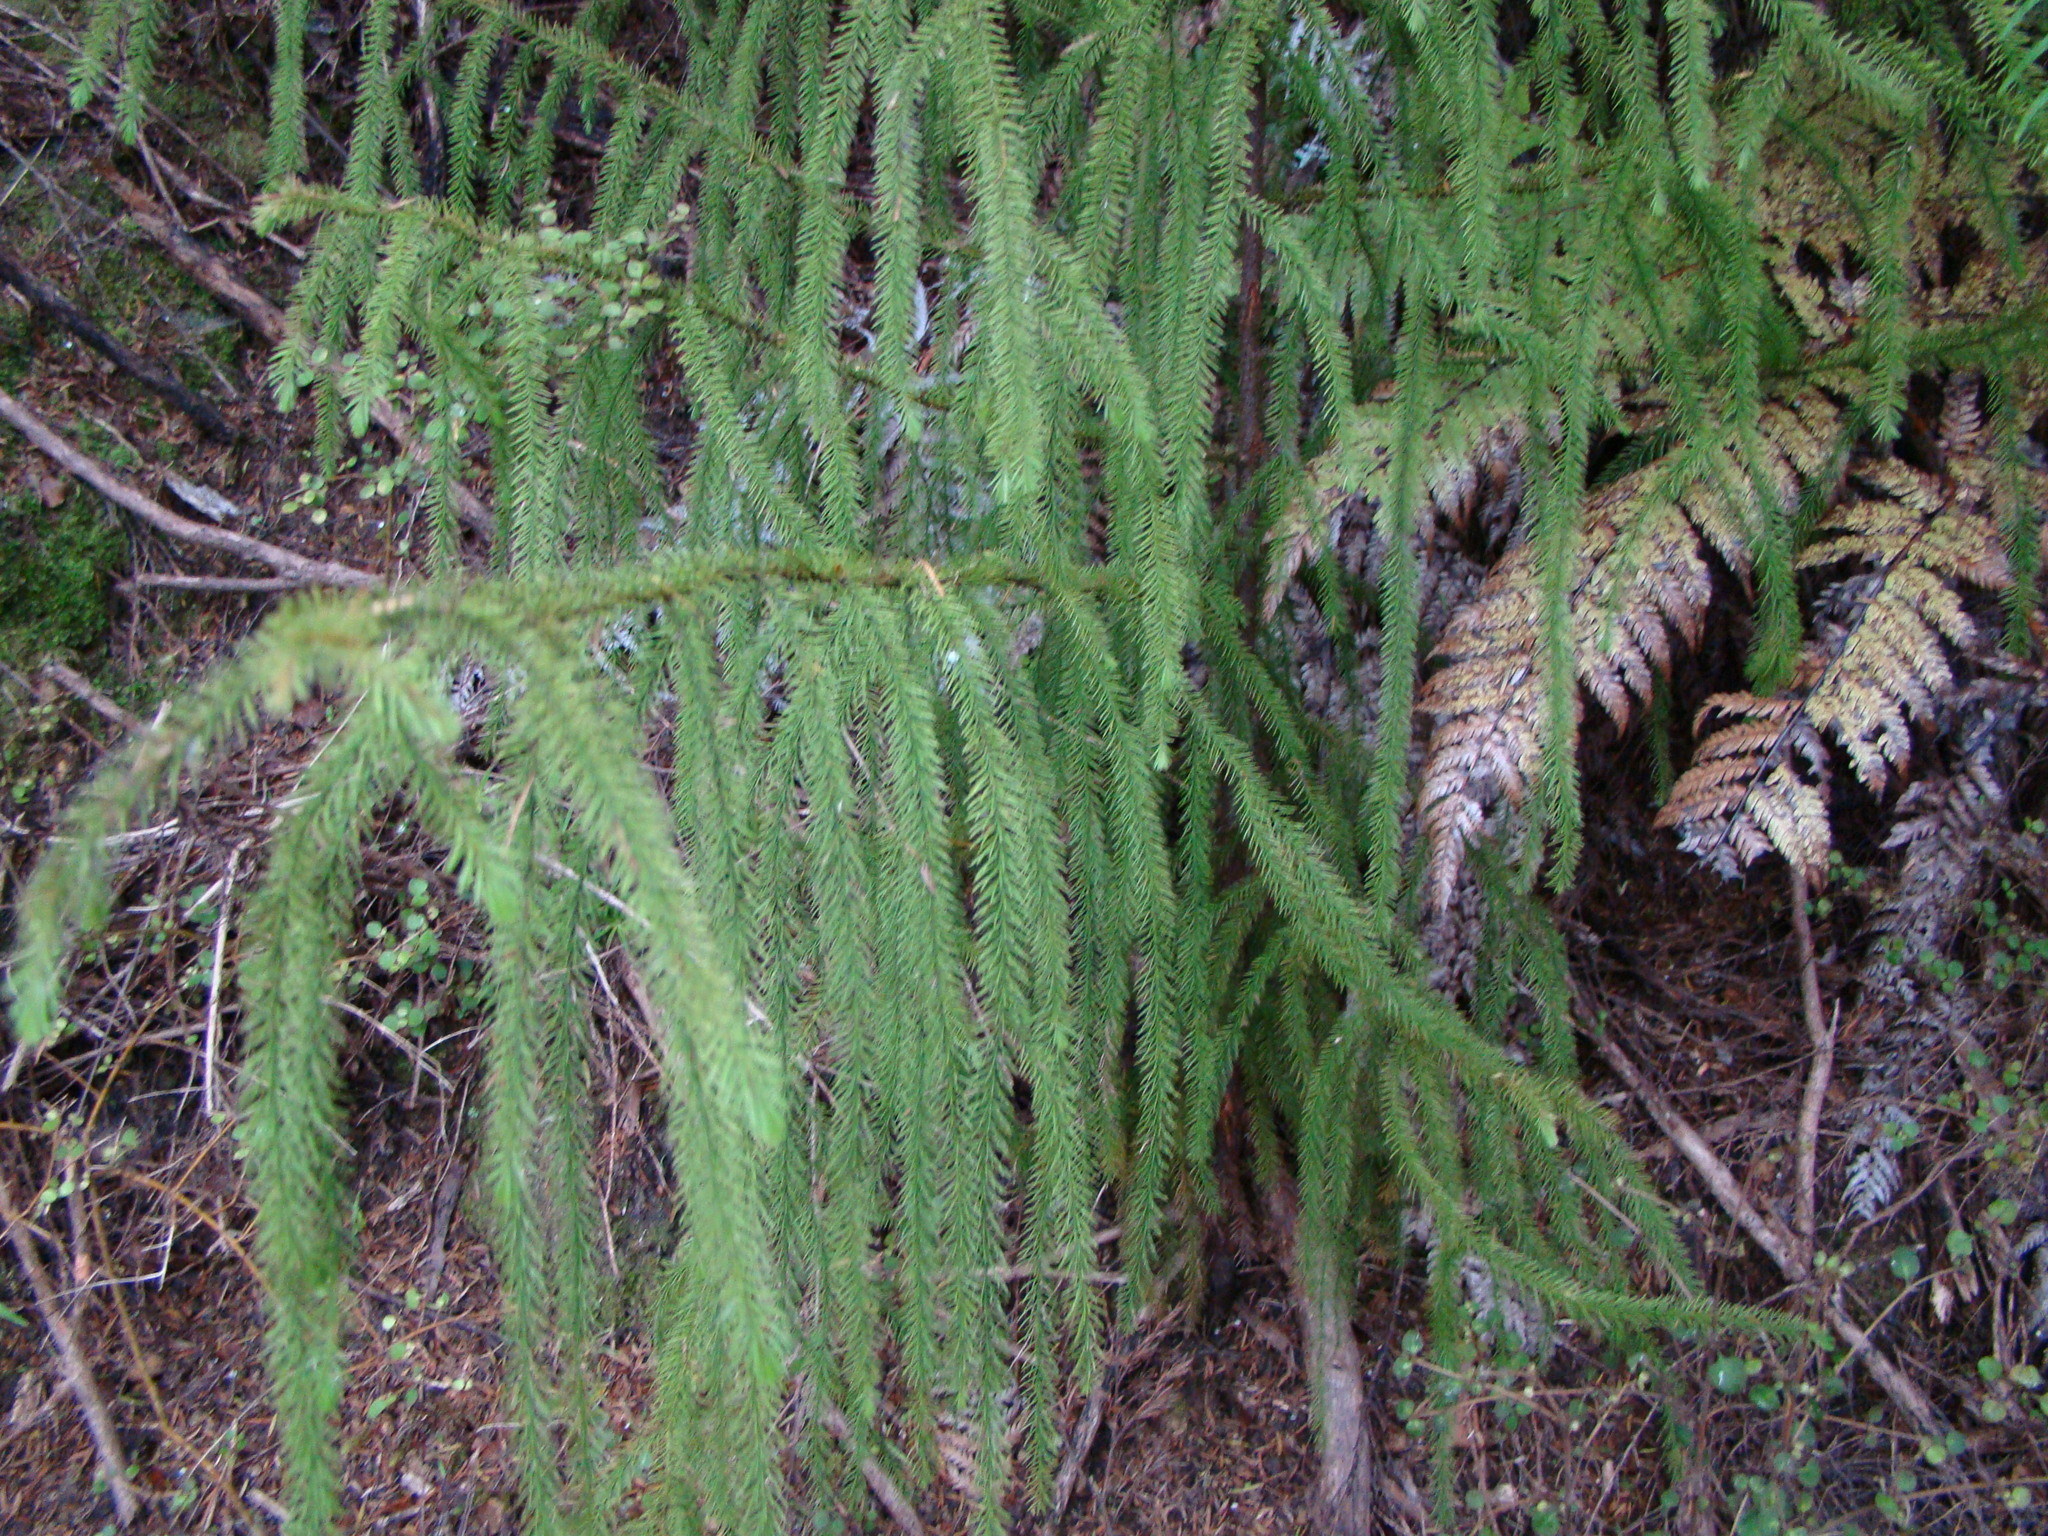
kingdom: Plantae
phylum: Tracheophyta
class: Pinopsida
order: Pinales
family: Podocarpaceae
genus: Dacrydium
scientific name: Dacrydium cupressinum
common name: Red pine
